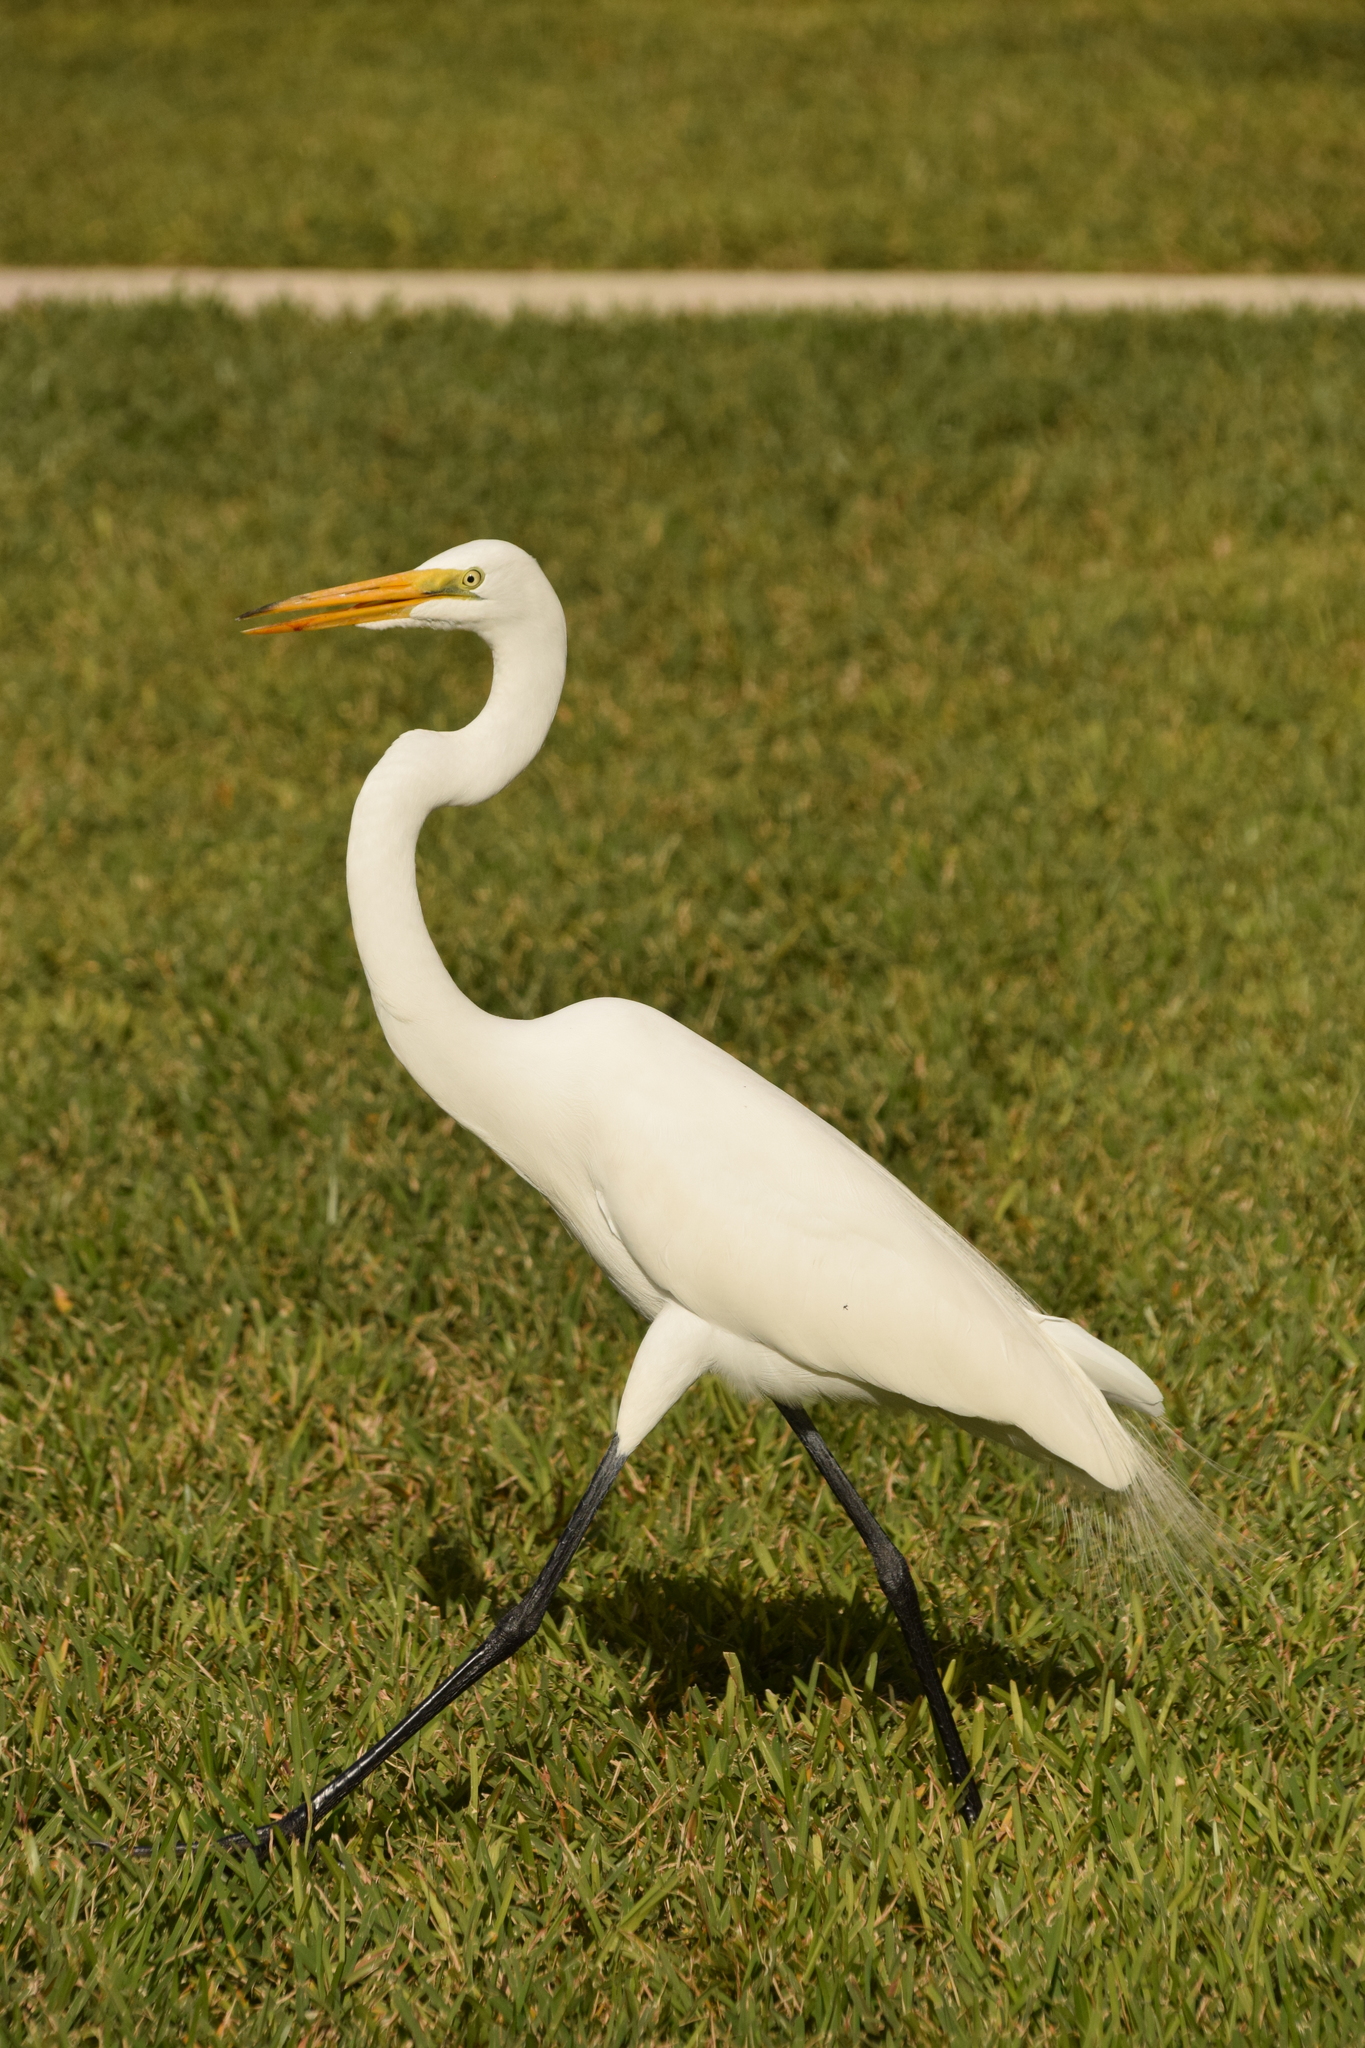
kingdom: Animalia
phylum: Chordata
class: Aves
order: Pelecaniformes
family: Ardeidae
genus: Ardea
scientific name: Ardea alba
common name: Great egret
